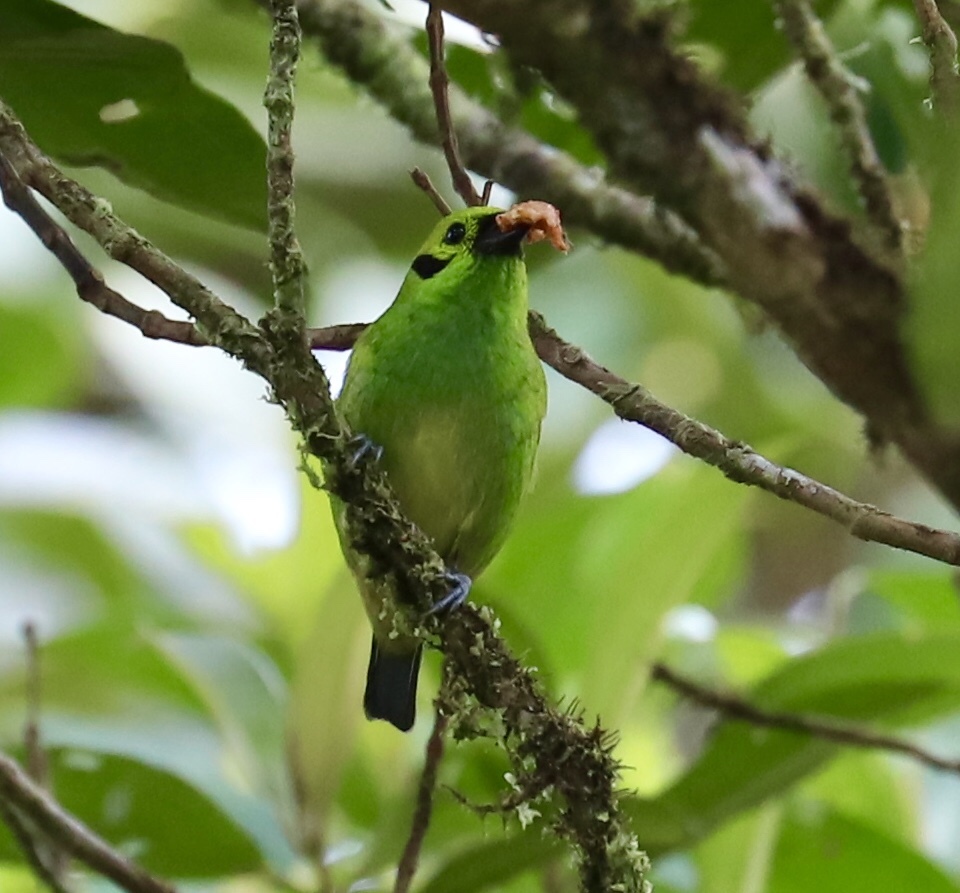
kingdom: Animalia
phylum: Chordata
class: Aves
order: Passeriformes
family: Thraupidae
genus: Tangara
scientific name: Tangara florida
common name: Emerald tanager
